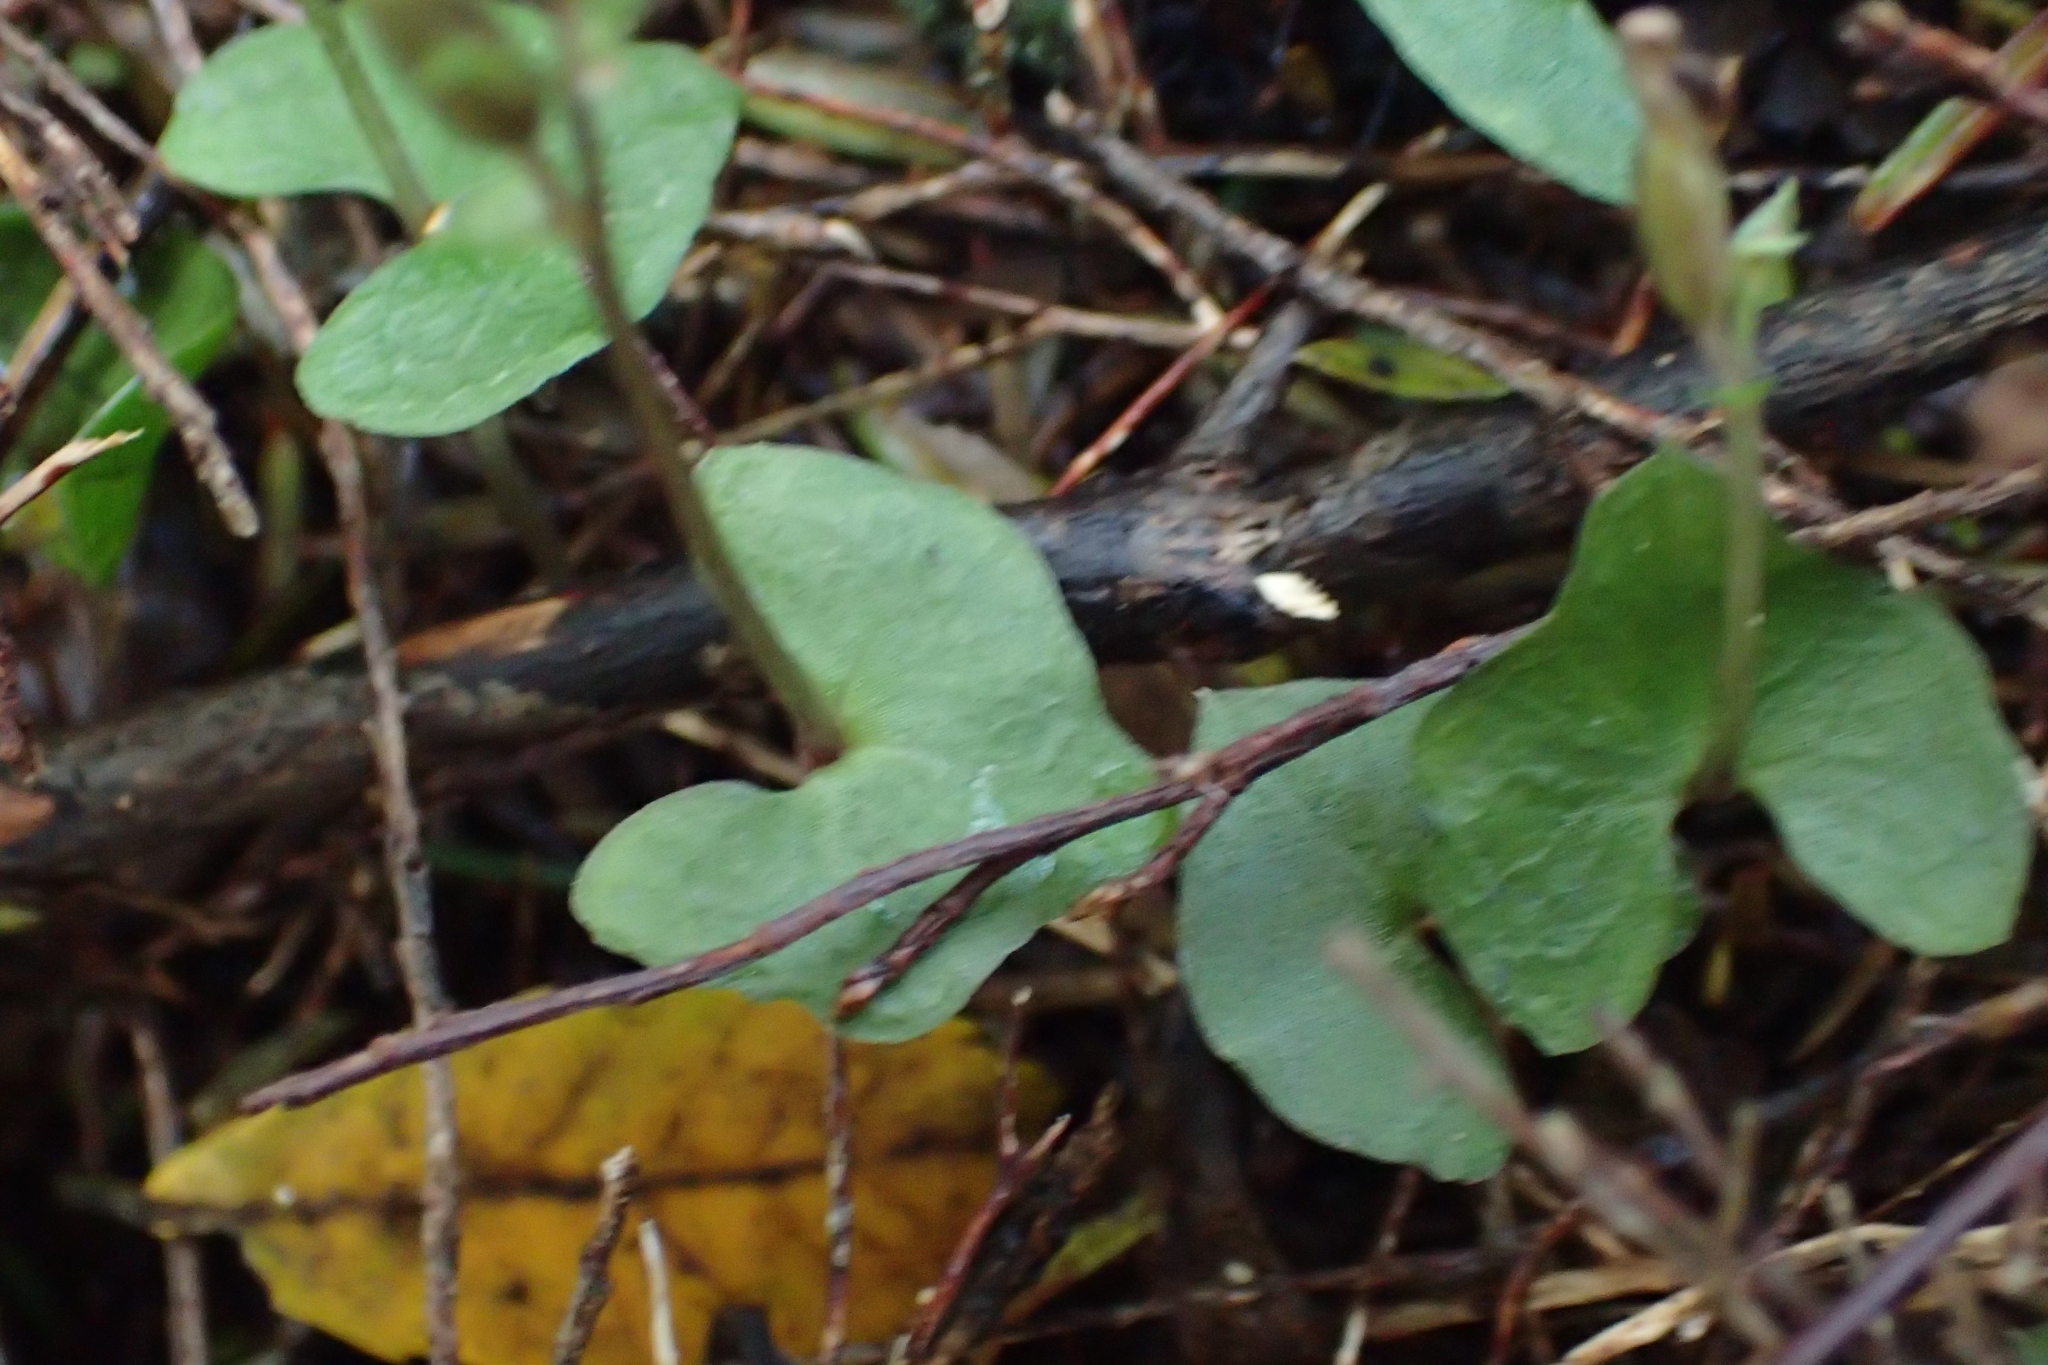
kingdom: Plantae
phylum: Tracheophyta
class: Liliopsida
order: Asparagales
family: Orchidaceae
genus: Acianthus
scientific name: Acianthus sinclairii
